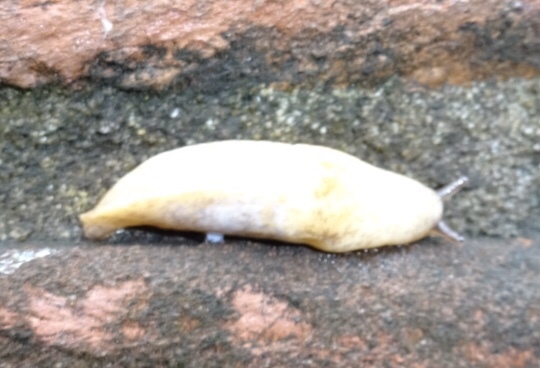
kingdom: Animalia
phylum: Mollusca
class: Gastropoda
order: Stylommatophora
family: Agriolimacidae
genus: Deroceras
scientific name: Deroceras reticulatum
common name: Gray field slug
